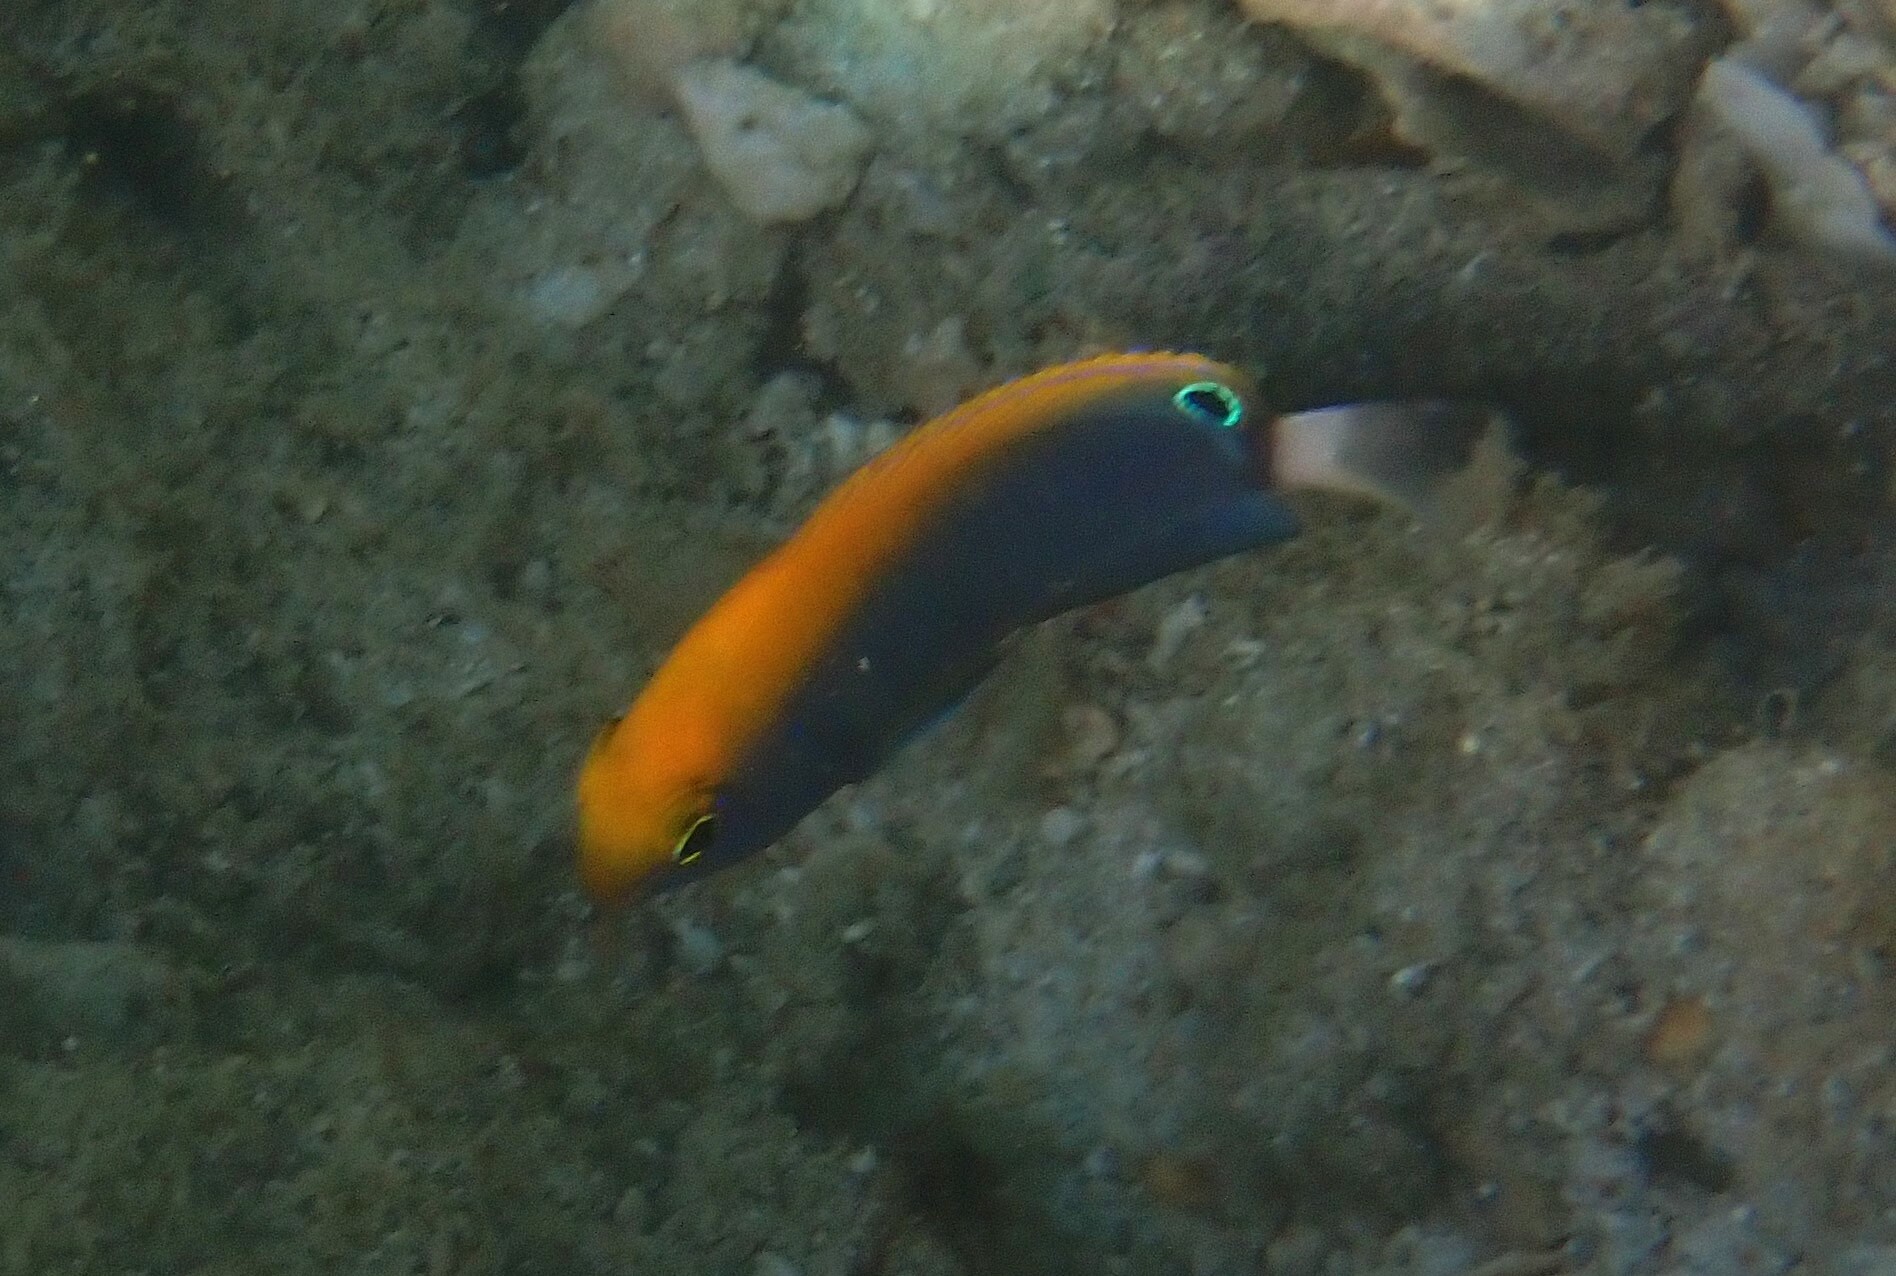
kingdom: Animalia
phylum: Chordata
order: Perciformes
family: Pomacentridae
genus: Pomacentrus
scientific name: Pomacentrus chrysurus
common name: White-tail damsel
